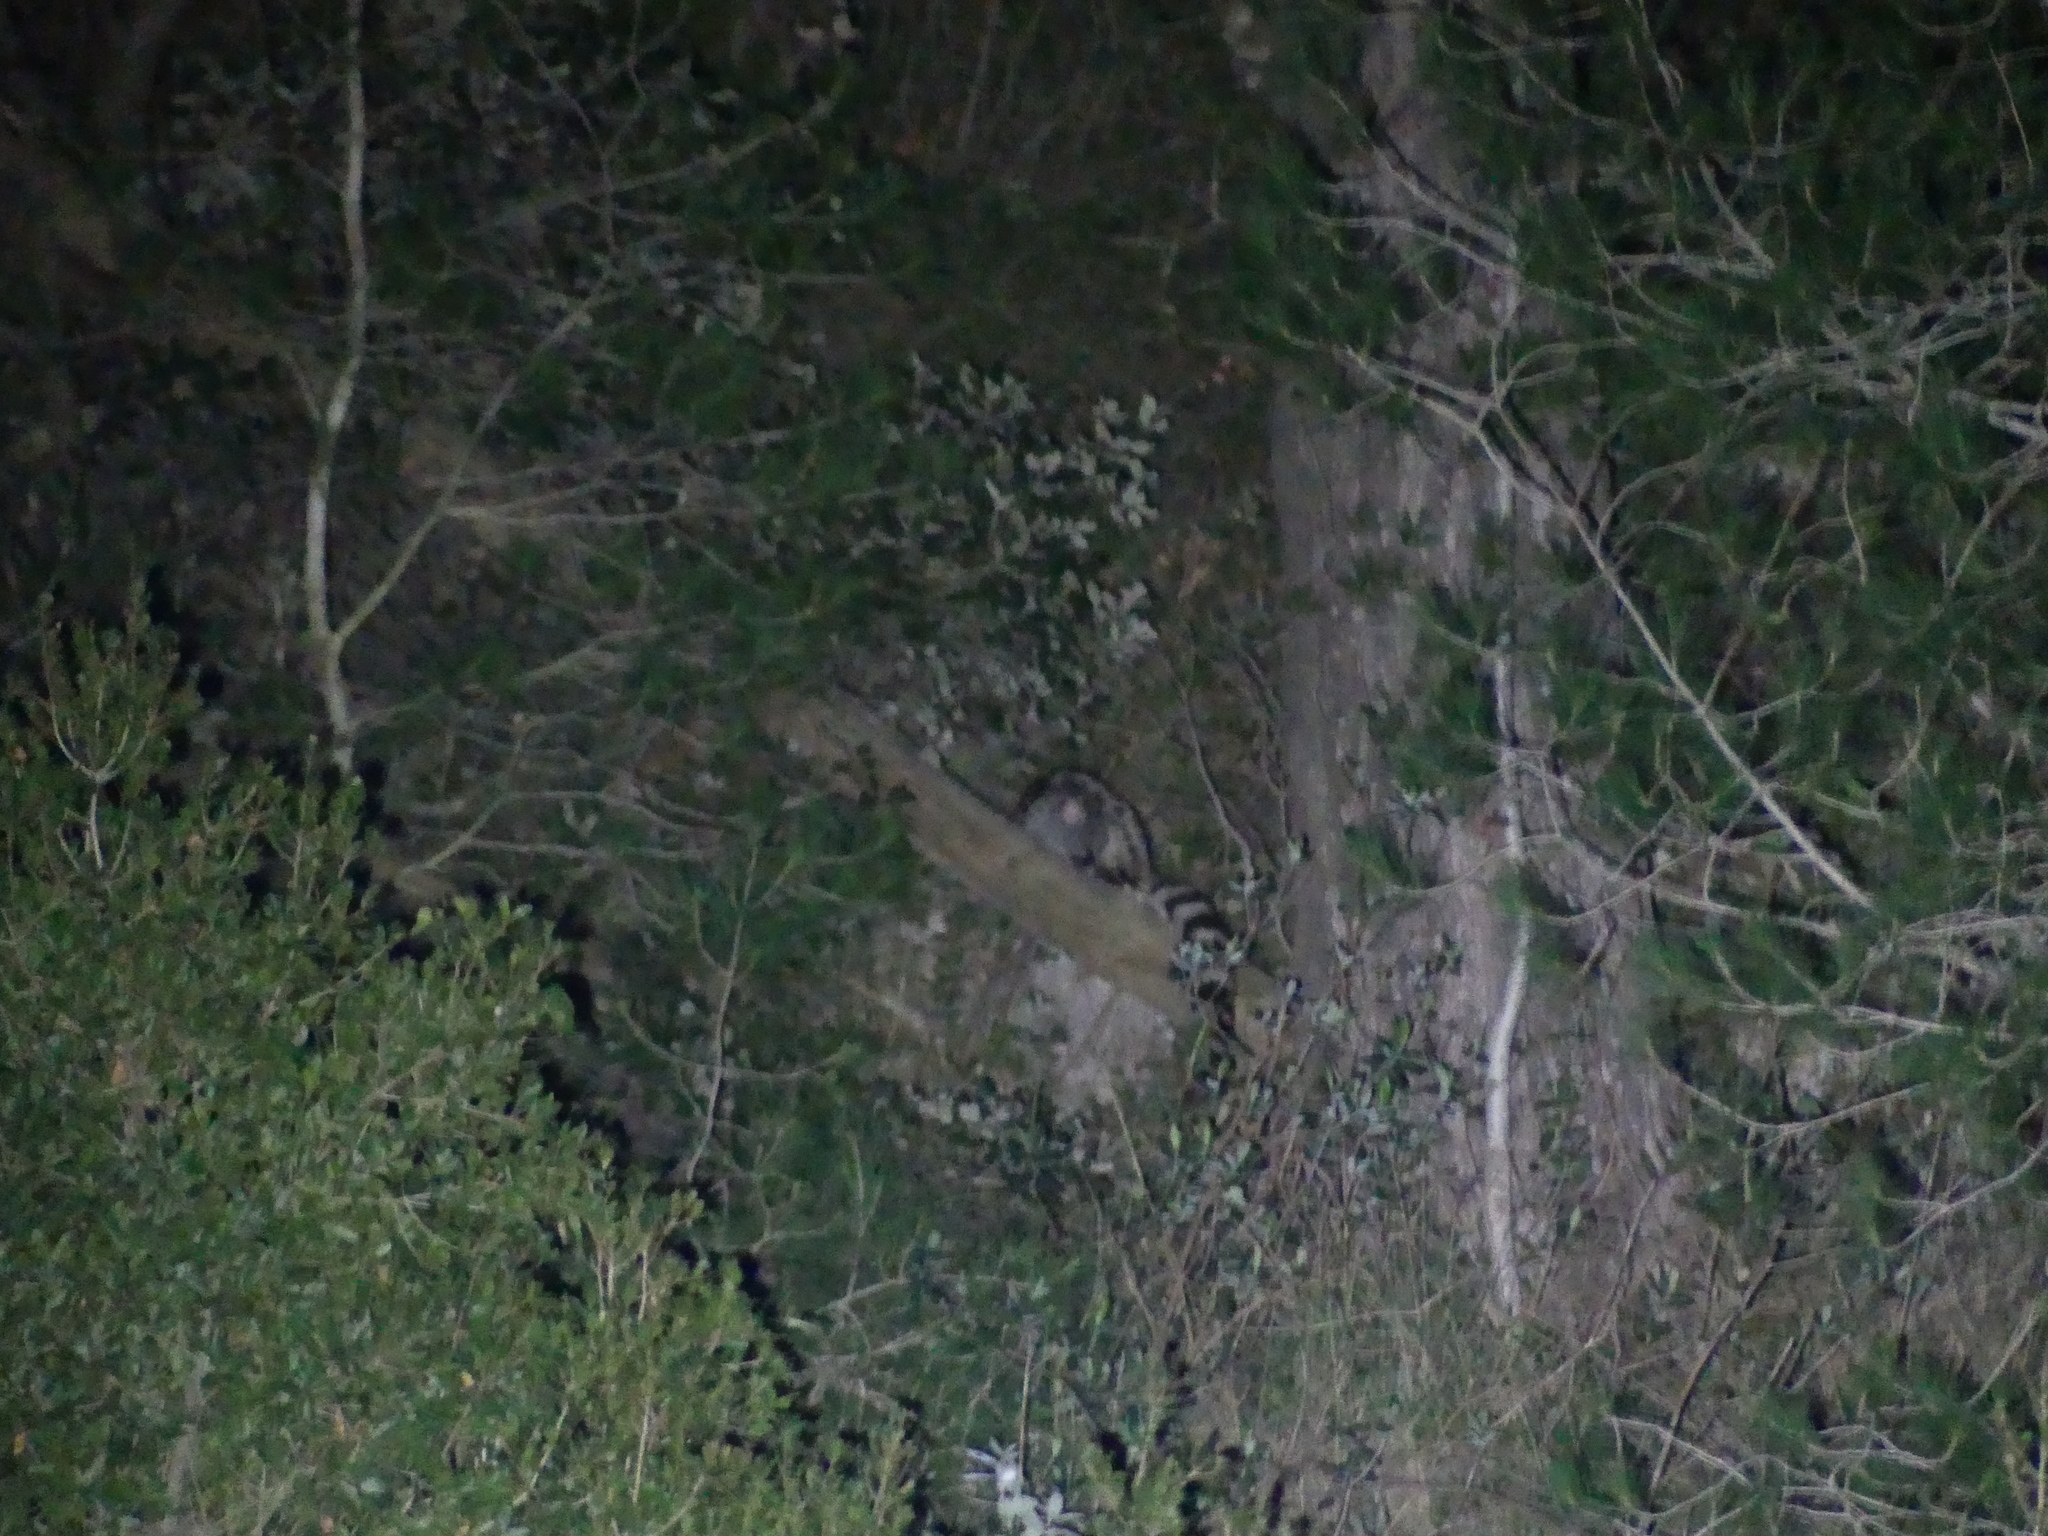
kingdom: Animalia
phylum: Chordata
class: Mammalia
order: Carnivora
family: Viverridae
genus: Genetta
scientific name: Genetta genetta
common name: Common genet
